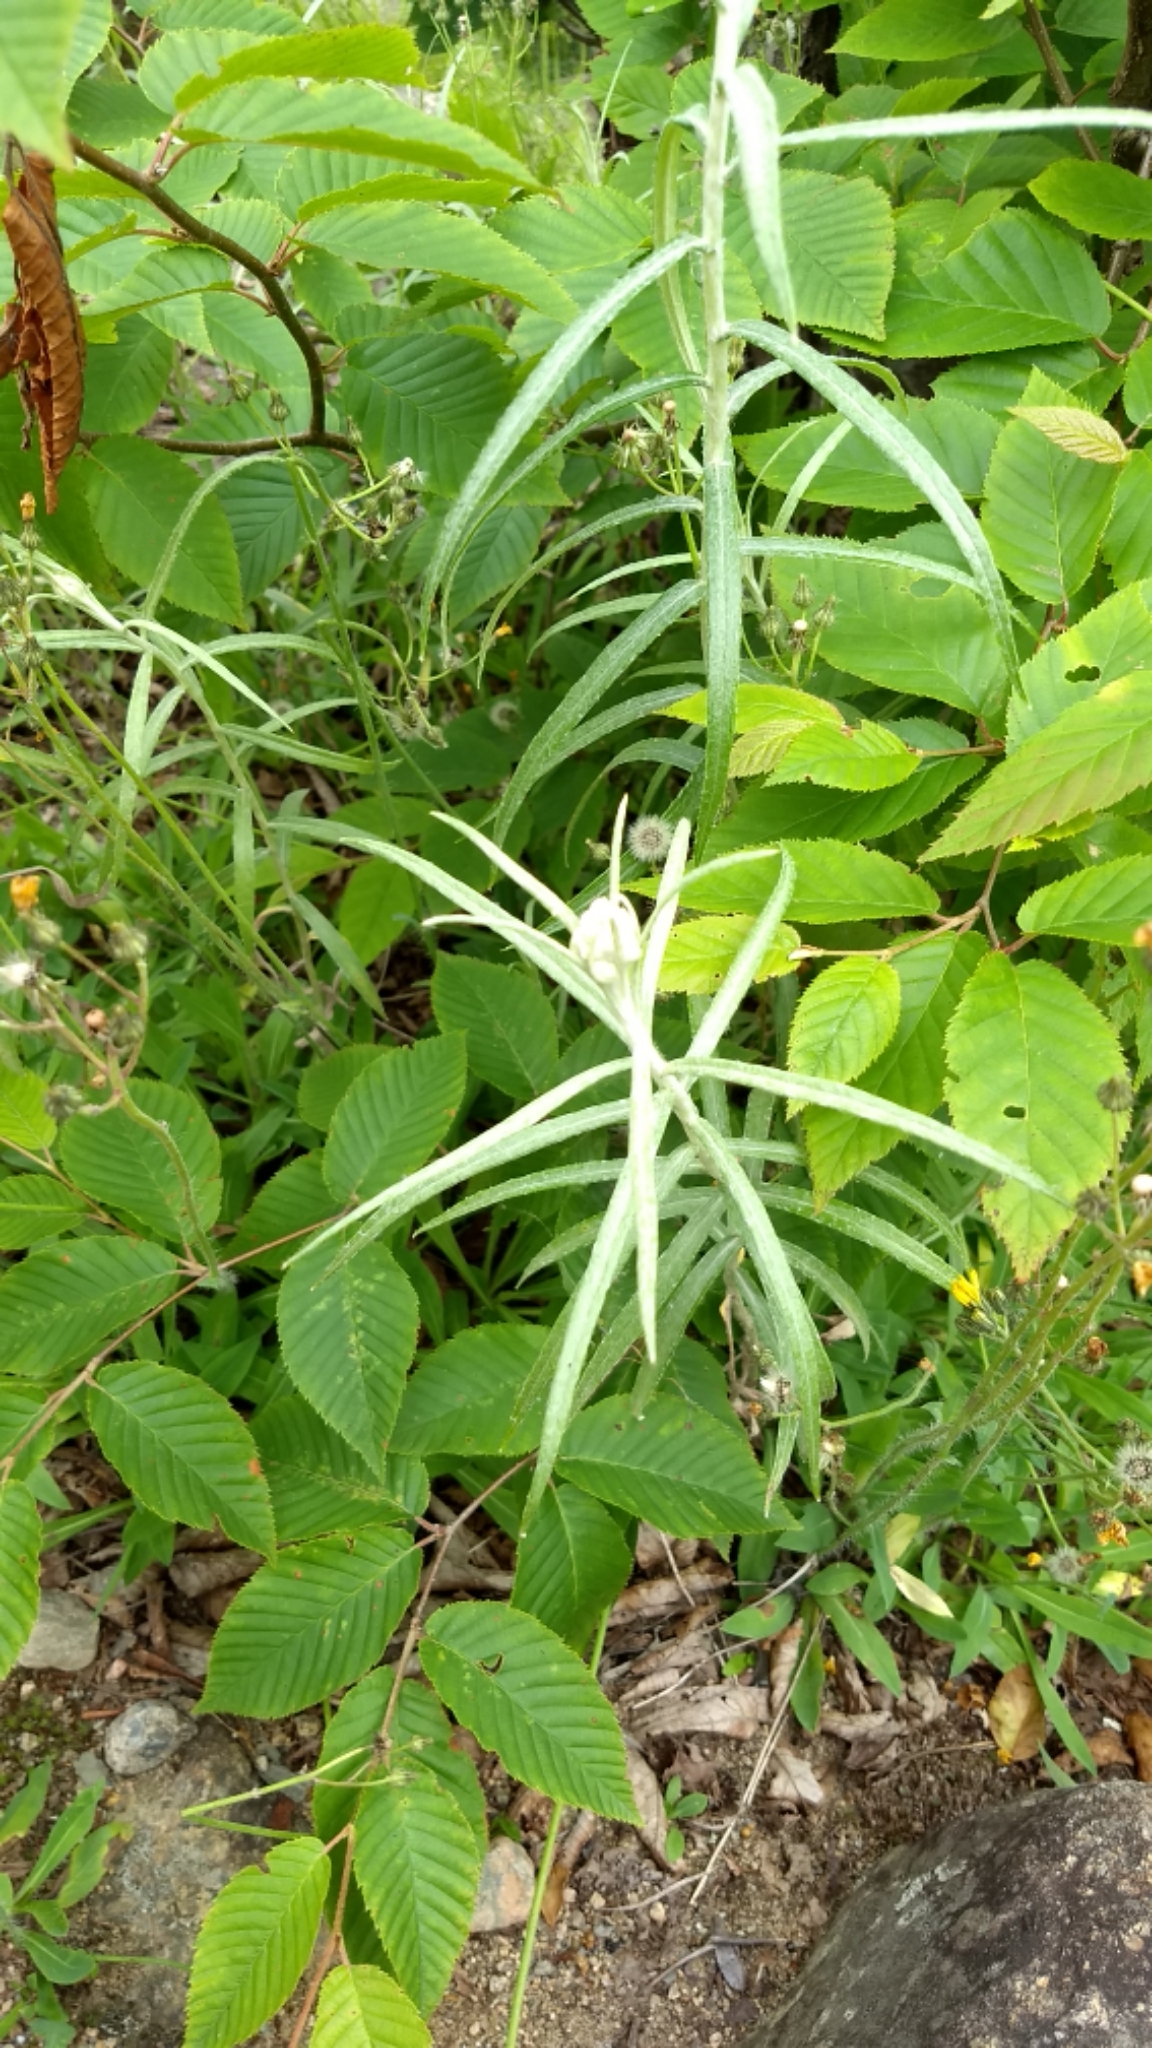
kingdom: Plantae
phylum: Tracheophyta
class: Magnoliopsida
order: Asterales
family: Asteraceae
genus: Anaphalis
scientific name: Anaphalis margaritacea
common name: Pearly everlasting
